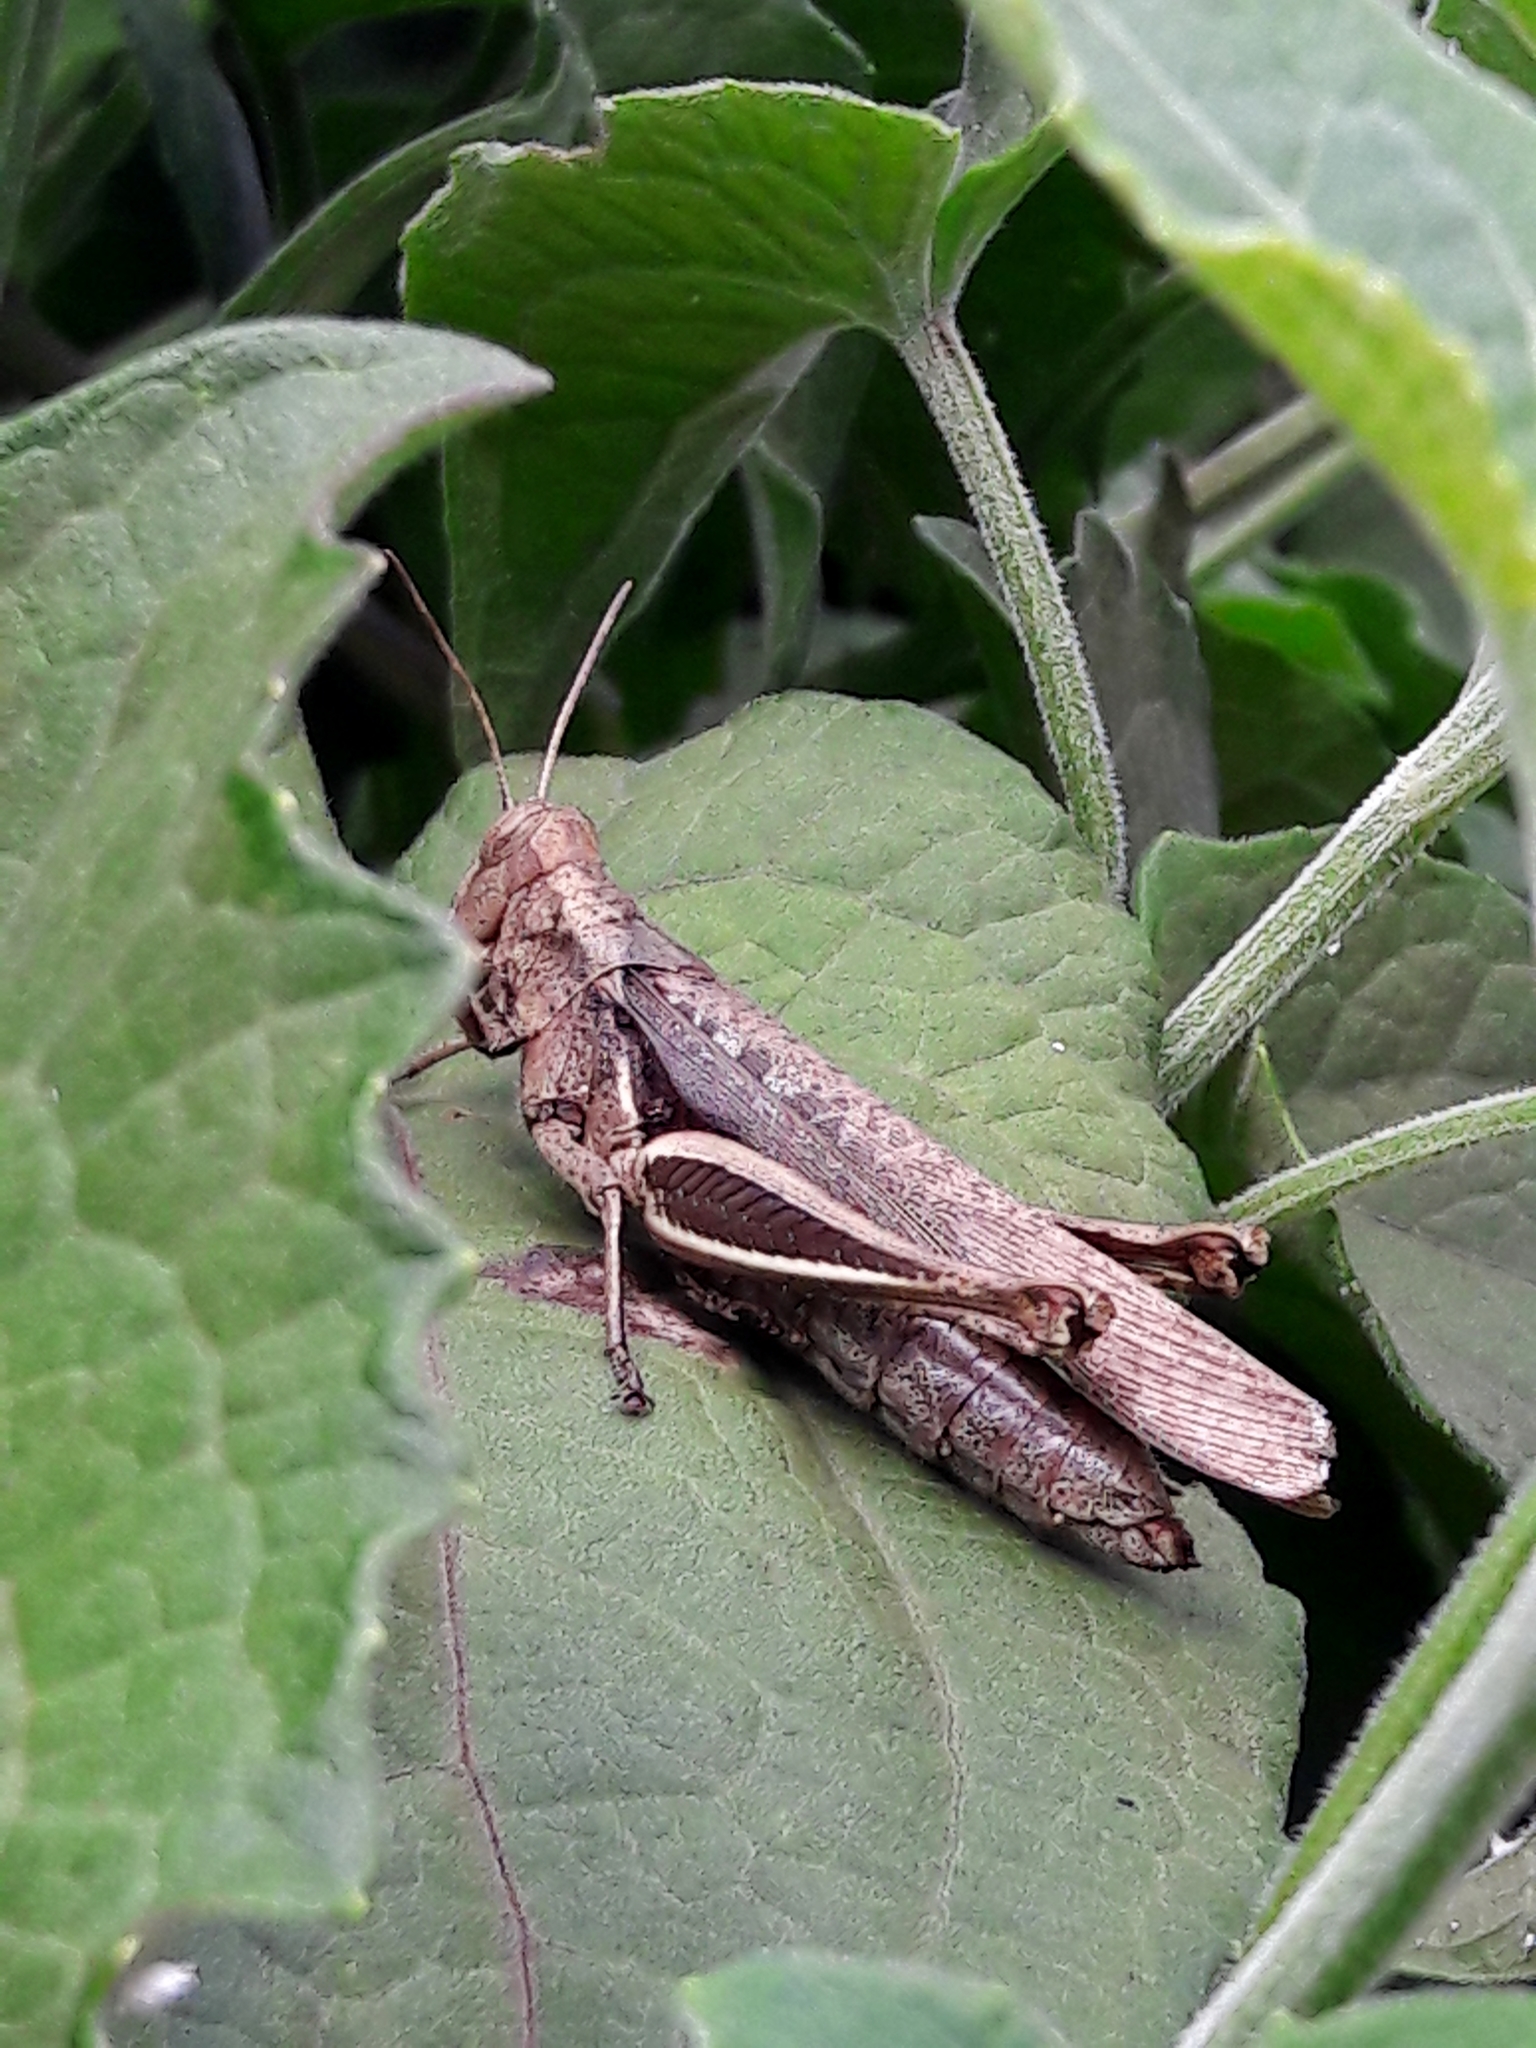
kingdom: Animalia
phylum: Arthropoda
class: Insecta
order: Orthoptera
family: Acrididae
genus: Abracris
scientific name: Abracris flavolineata
